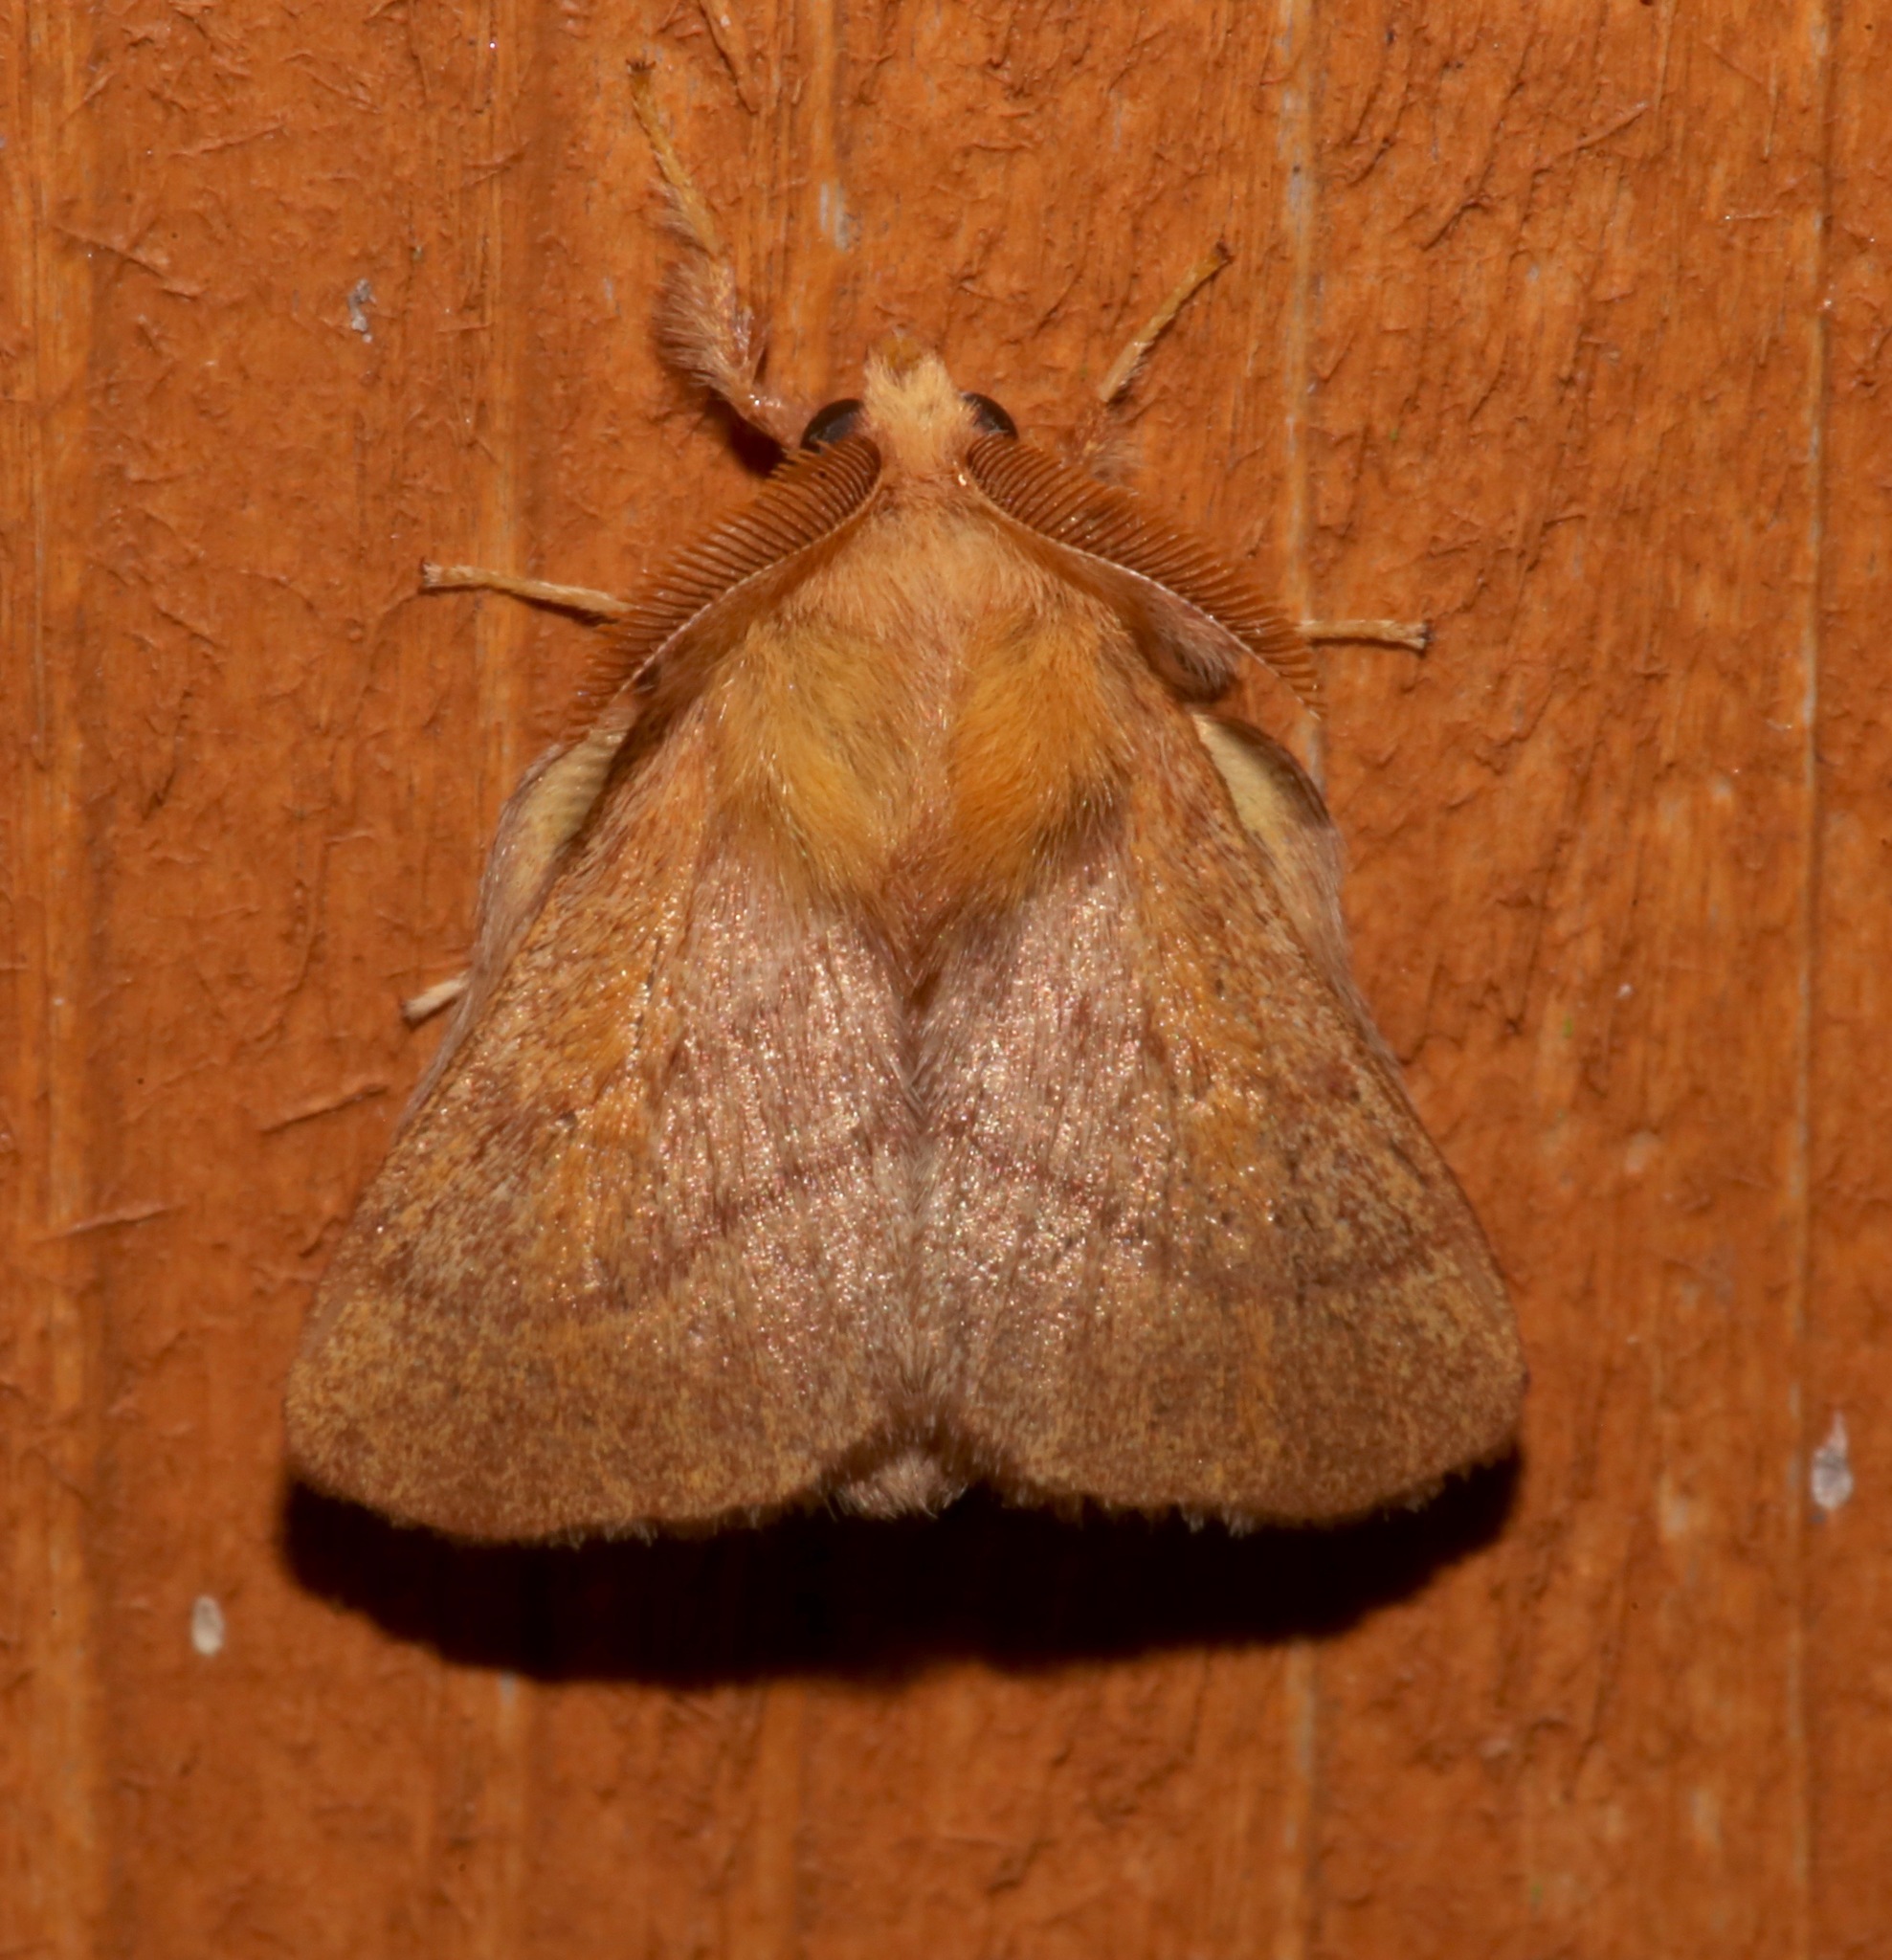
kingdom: Animalia
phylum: Arthropoda
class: Insecta
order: Lepidoptera
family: Lasiocampidae
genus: Malacosoma
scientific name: Malacosoma disstria
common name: Forest tent caterpillar
